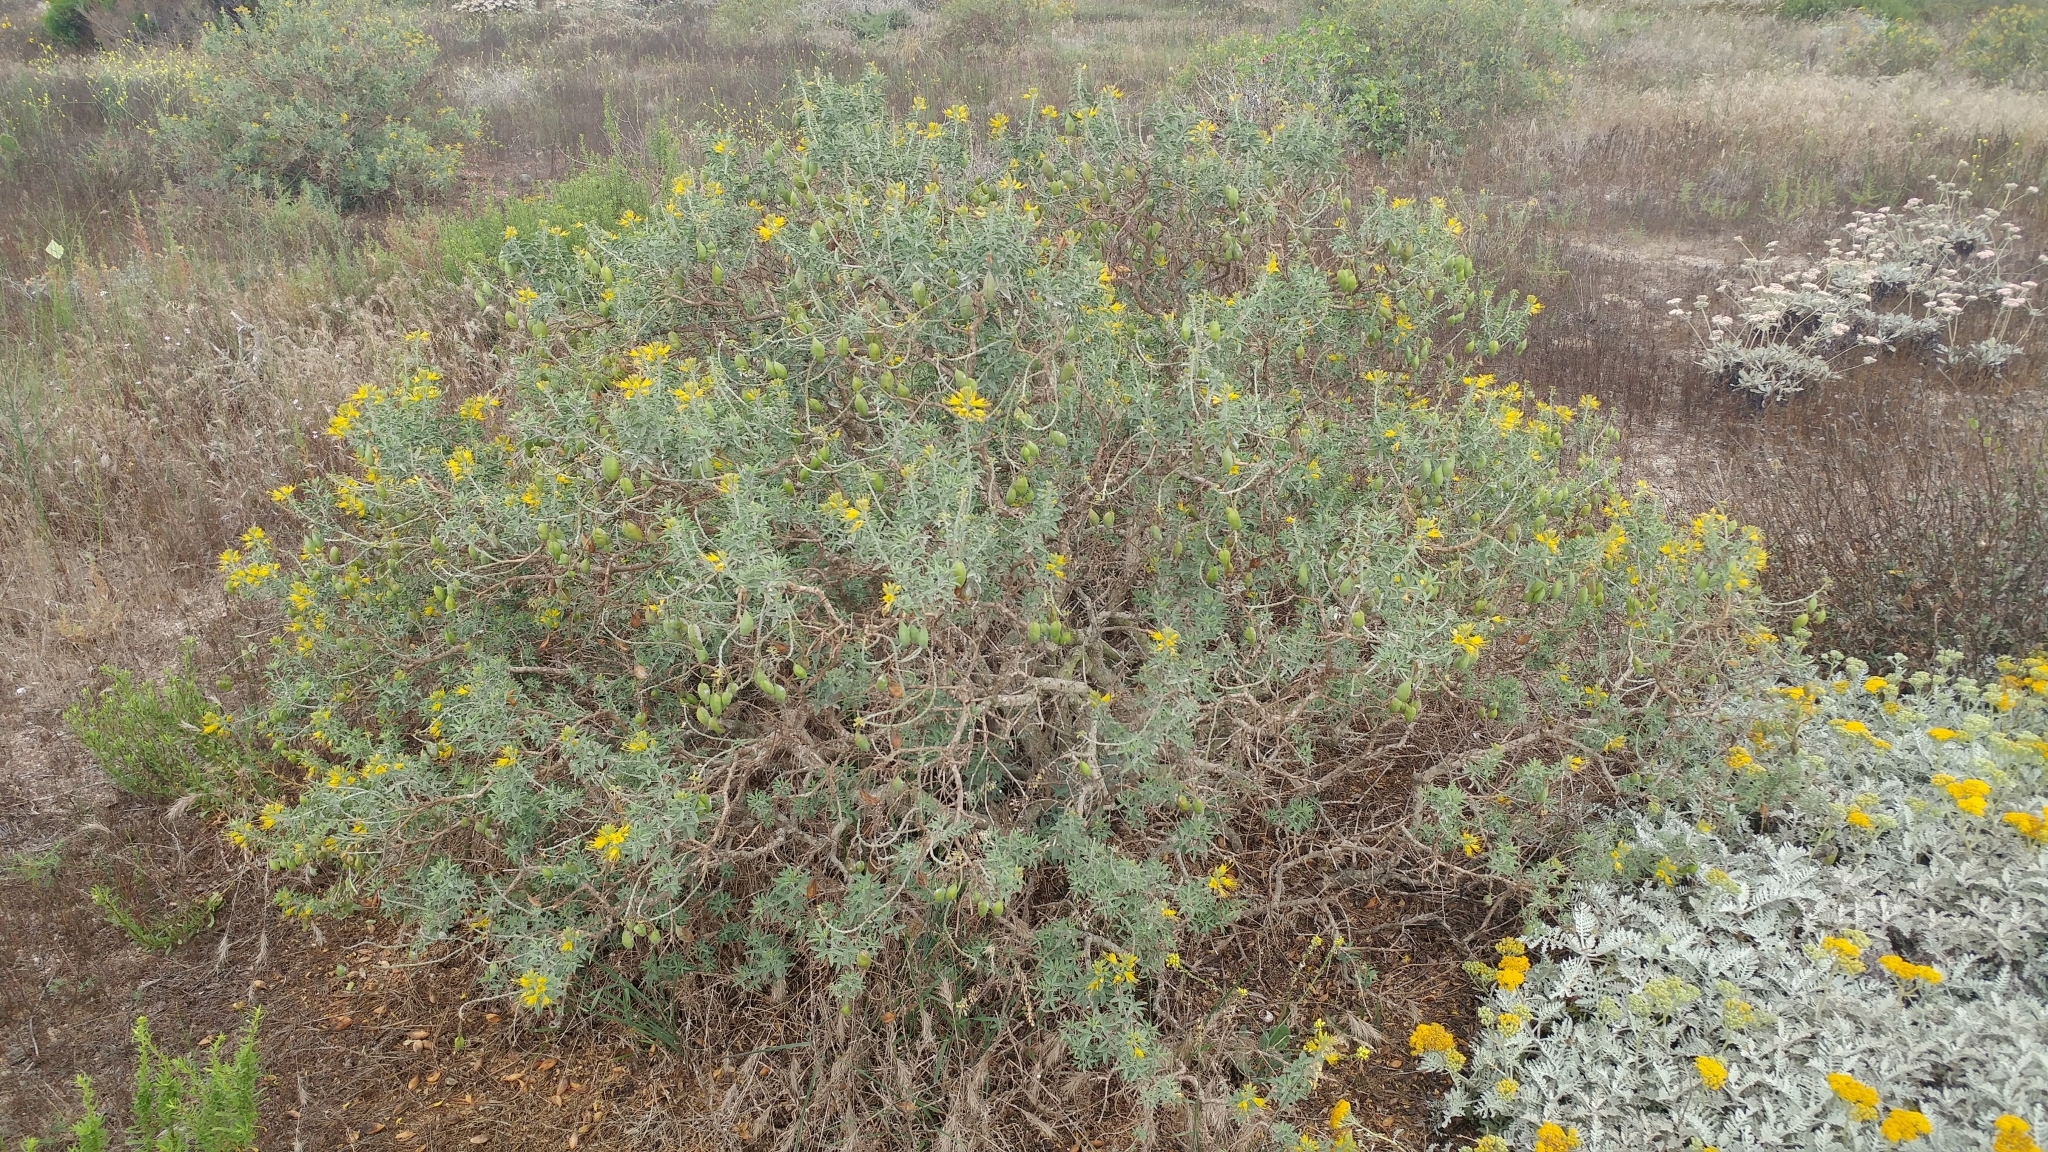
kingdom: Plantae
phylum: Tracheophyta
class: Magnoliopsida
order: Brassicales
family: Cleomaceae
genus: Cleomella
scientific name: Cleomella arborea
